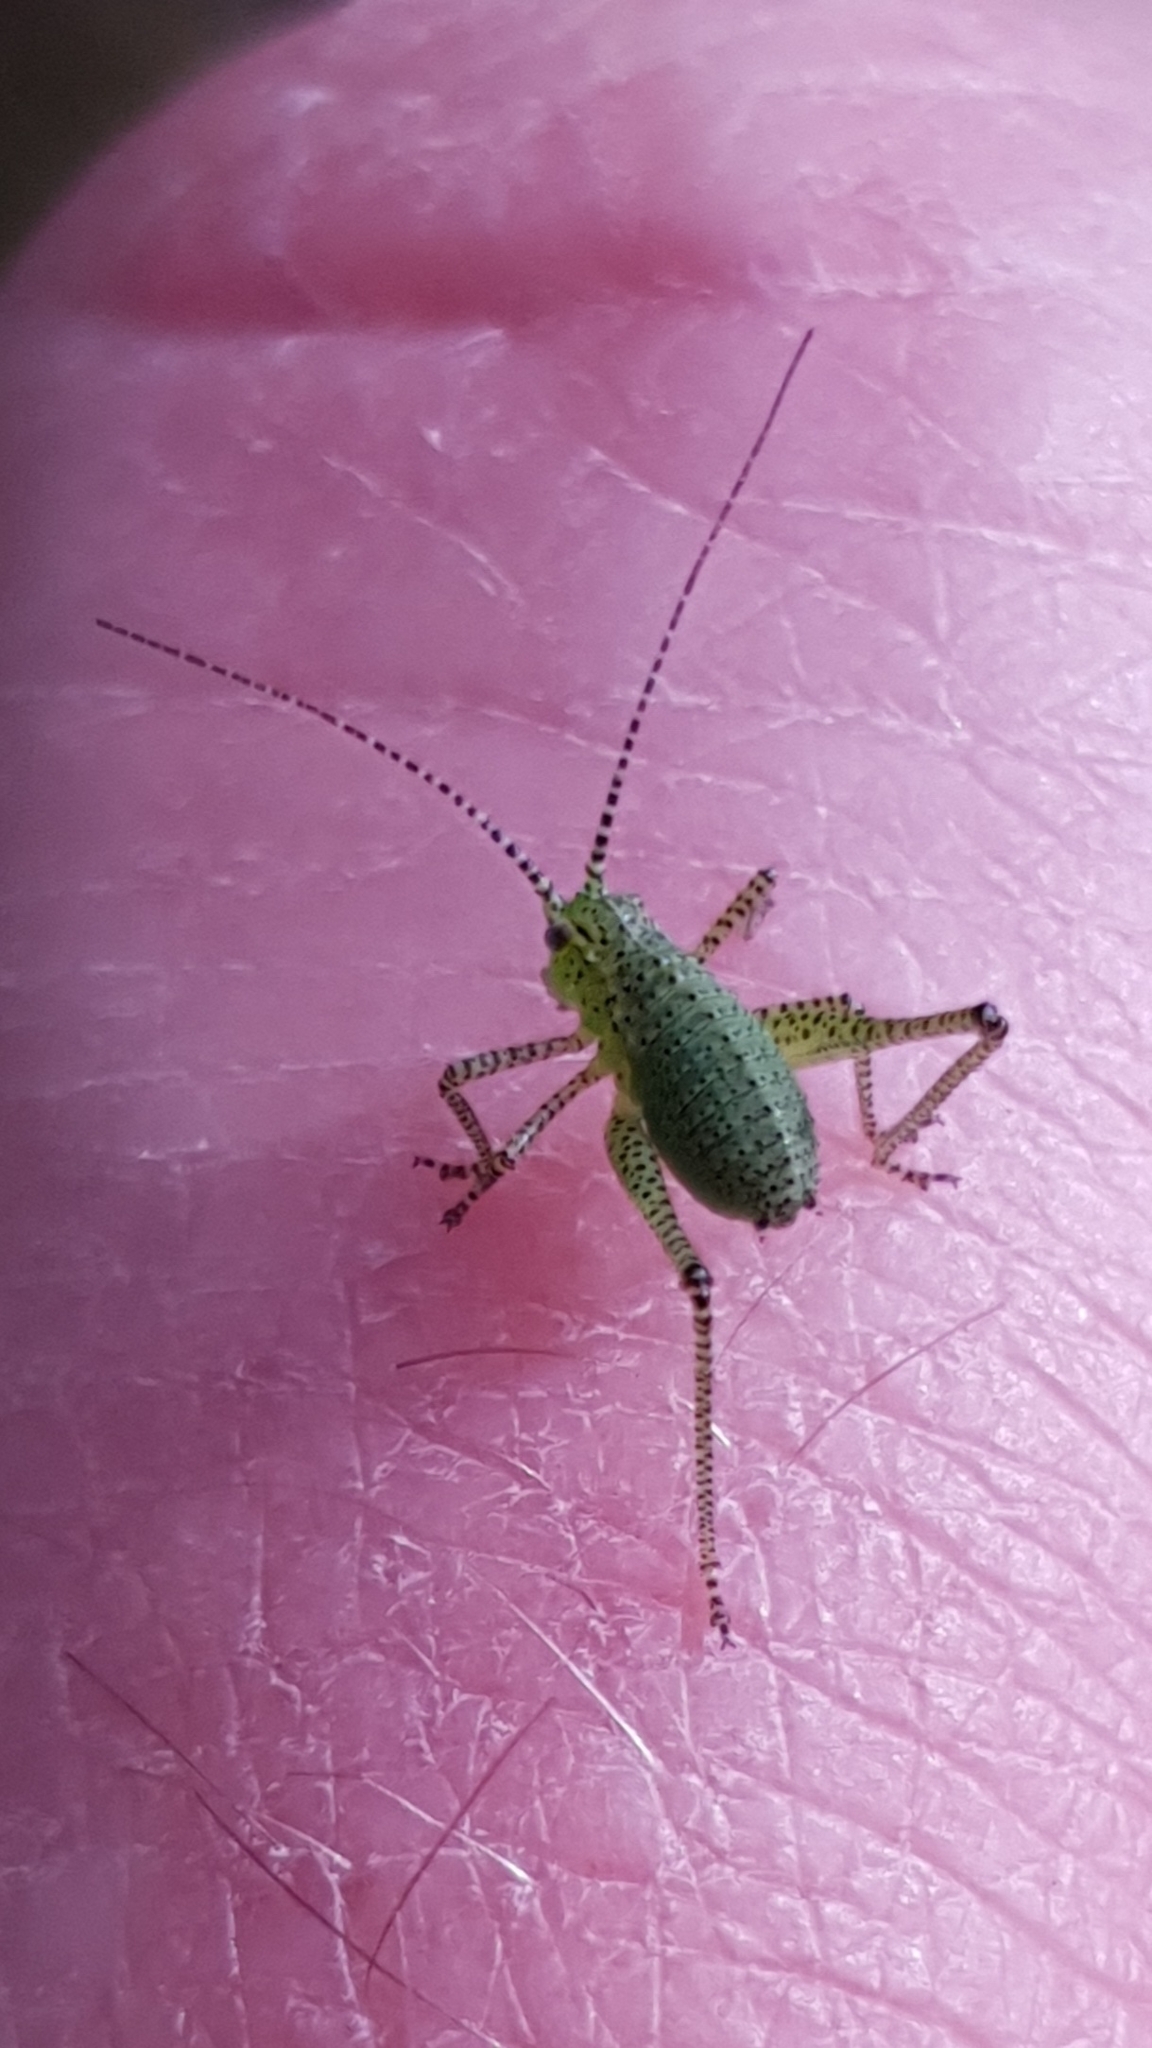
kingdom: Animalia
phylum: Arthropoda
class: Insecta
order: Orthoptera
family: Tettigoniidae
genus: Leptophyes
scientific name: Leptophyes punctatissima
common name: Speckled bush-cricket
